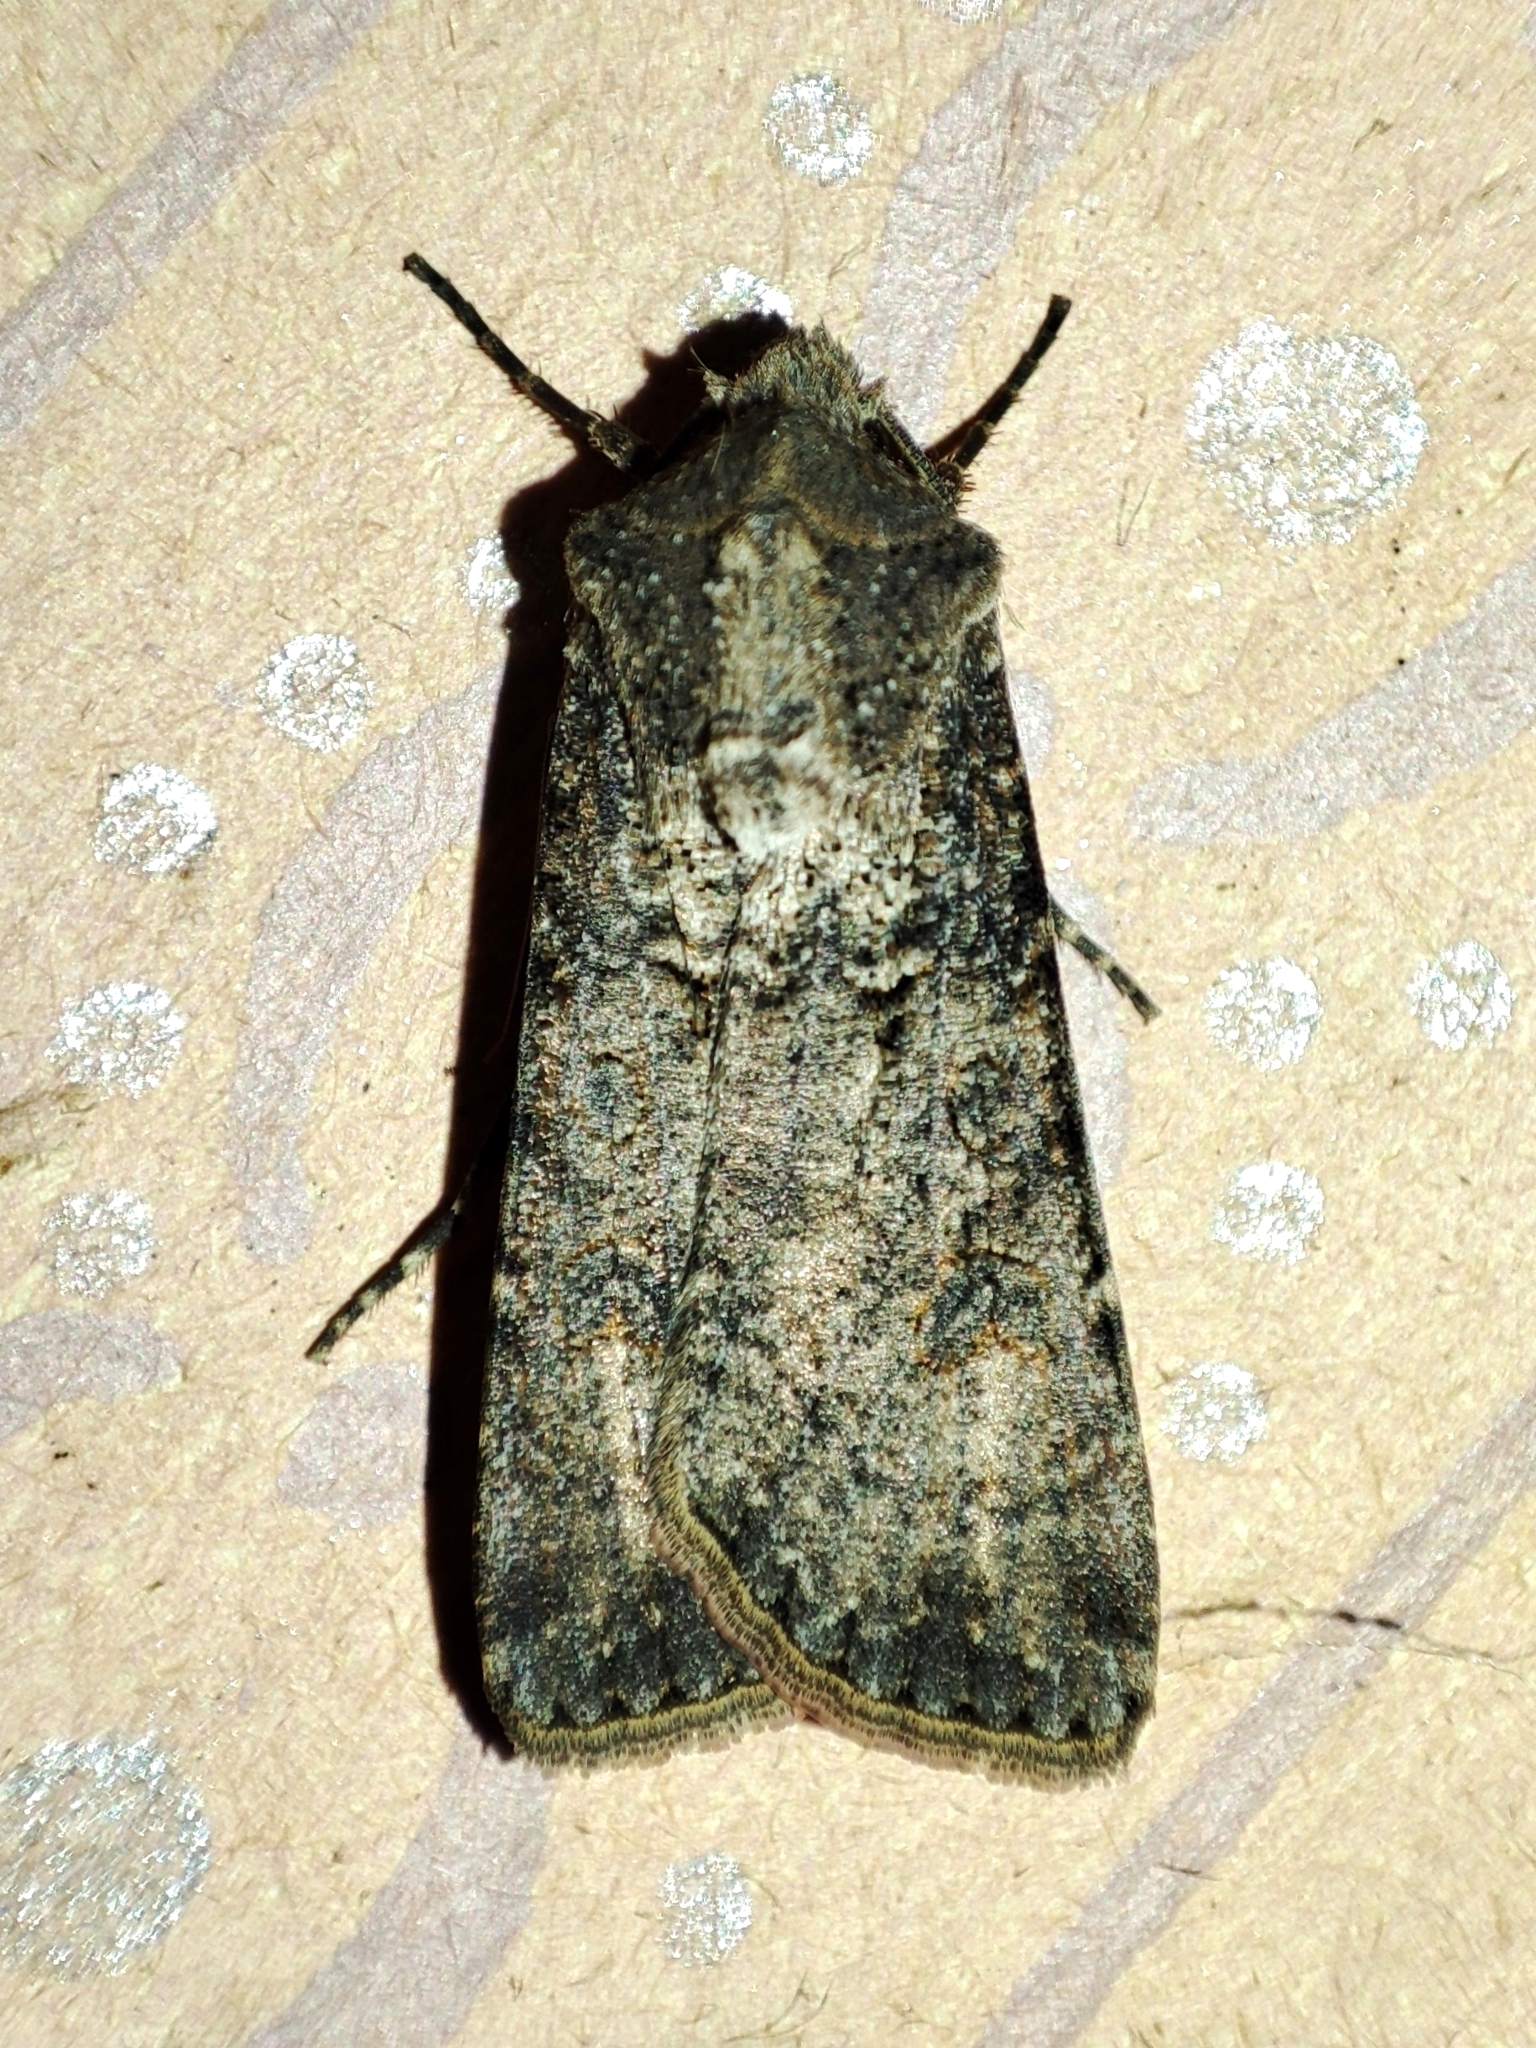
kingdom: Animalia
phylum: Arthropoda
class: Insecta
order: Lepidoptera
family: Noctuidae
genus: Agrotis
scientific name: Agrotis segetum
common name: Turnip moth
